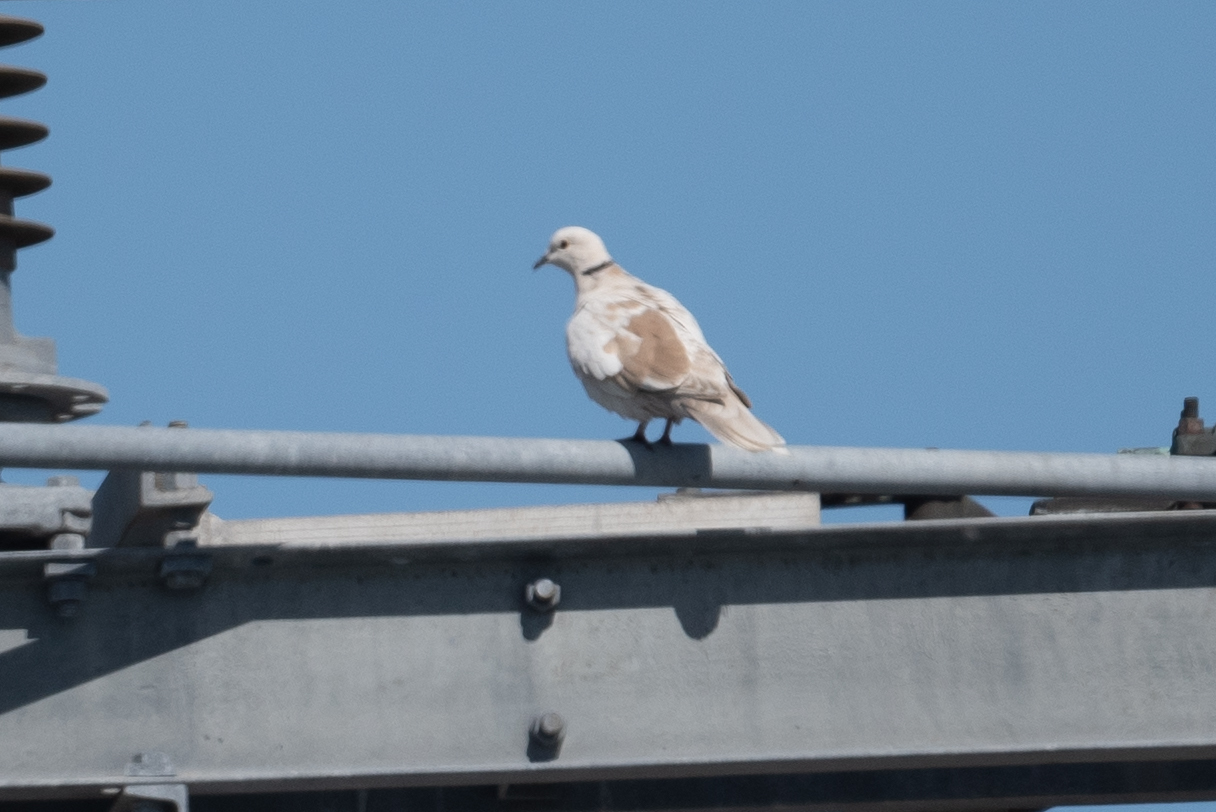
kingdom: Animalia
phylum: Chordata
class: Aves
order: Columbiformes
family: Columbidae
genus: Streptopelia
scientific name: Streptopelia decaocto
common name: Eurasian collared dove
